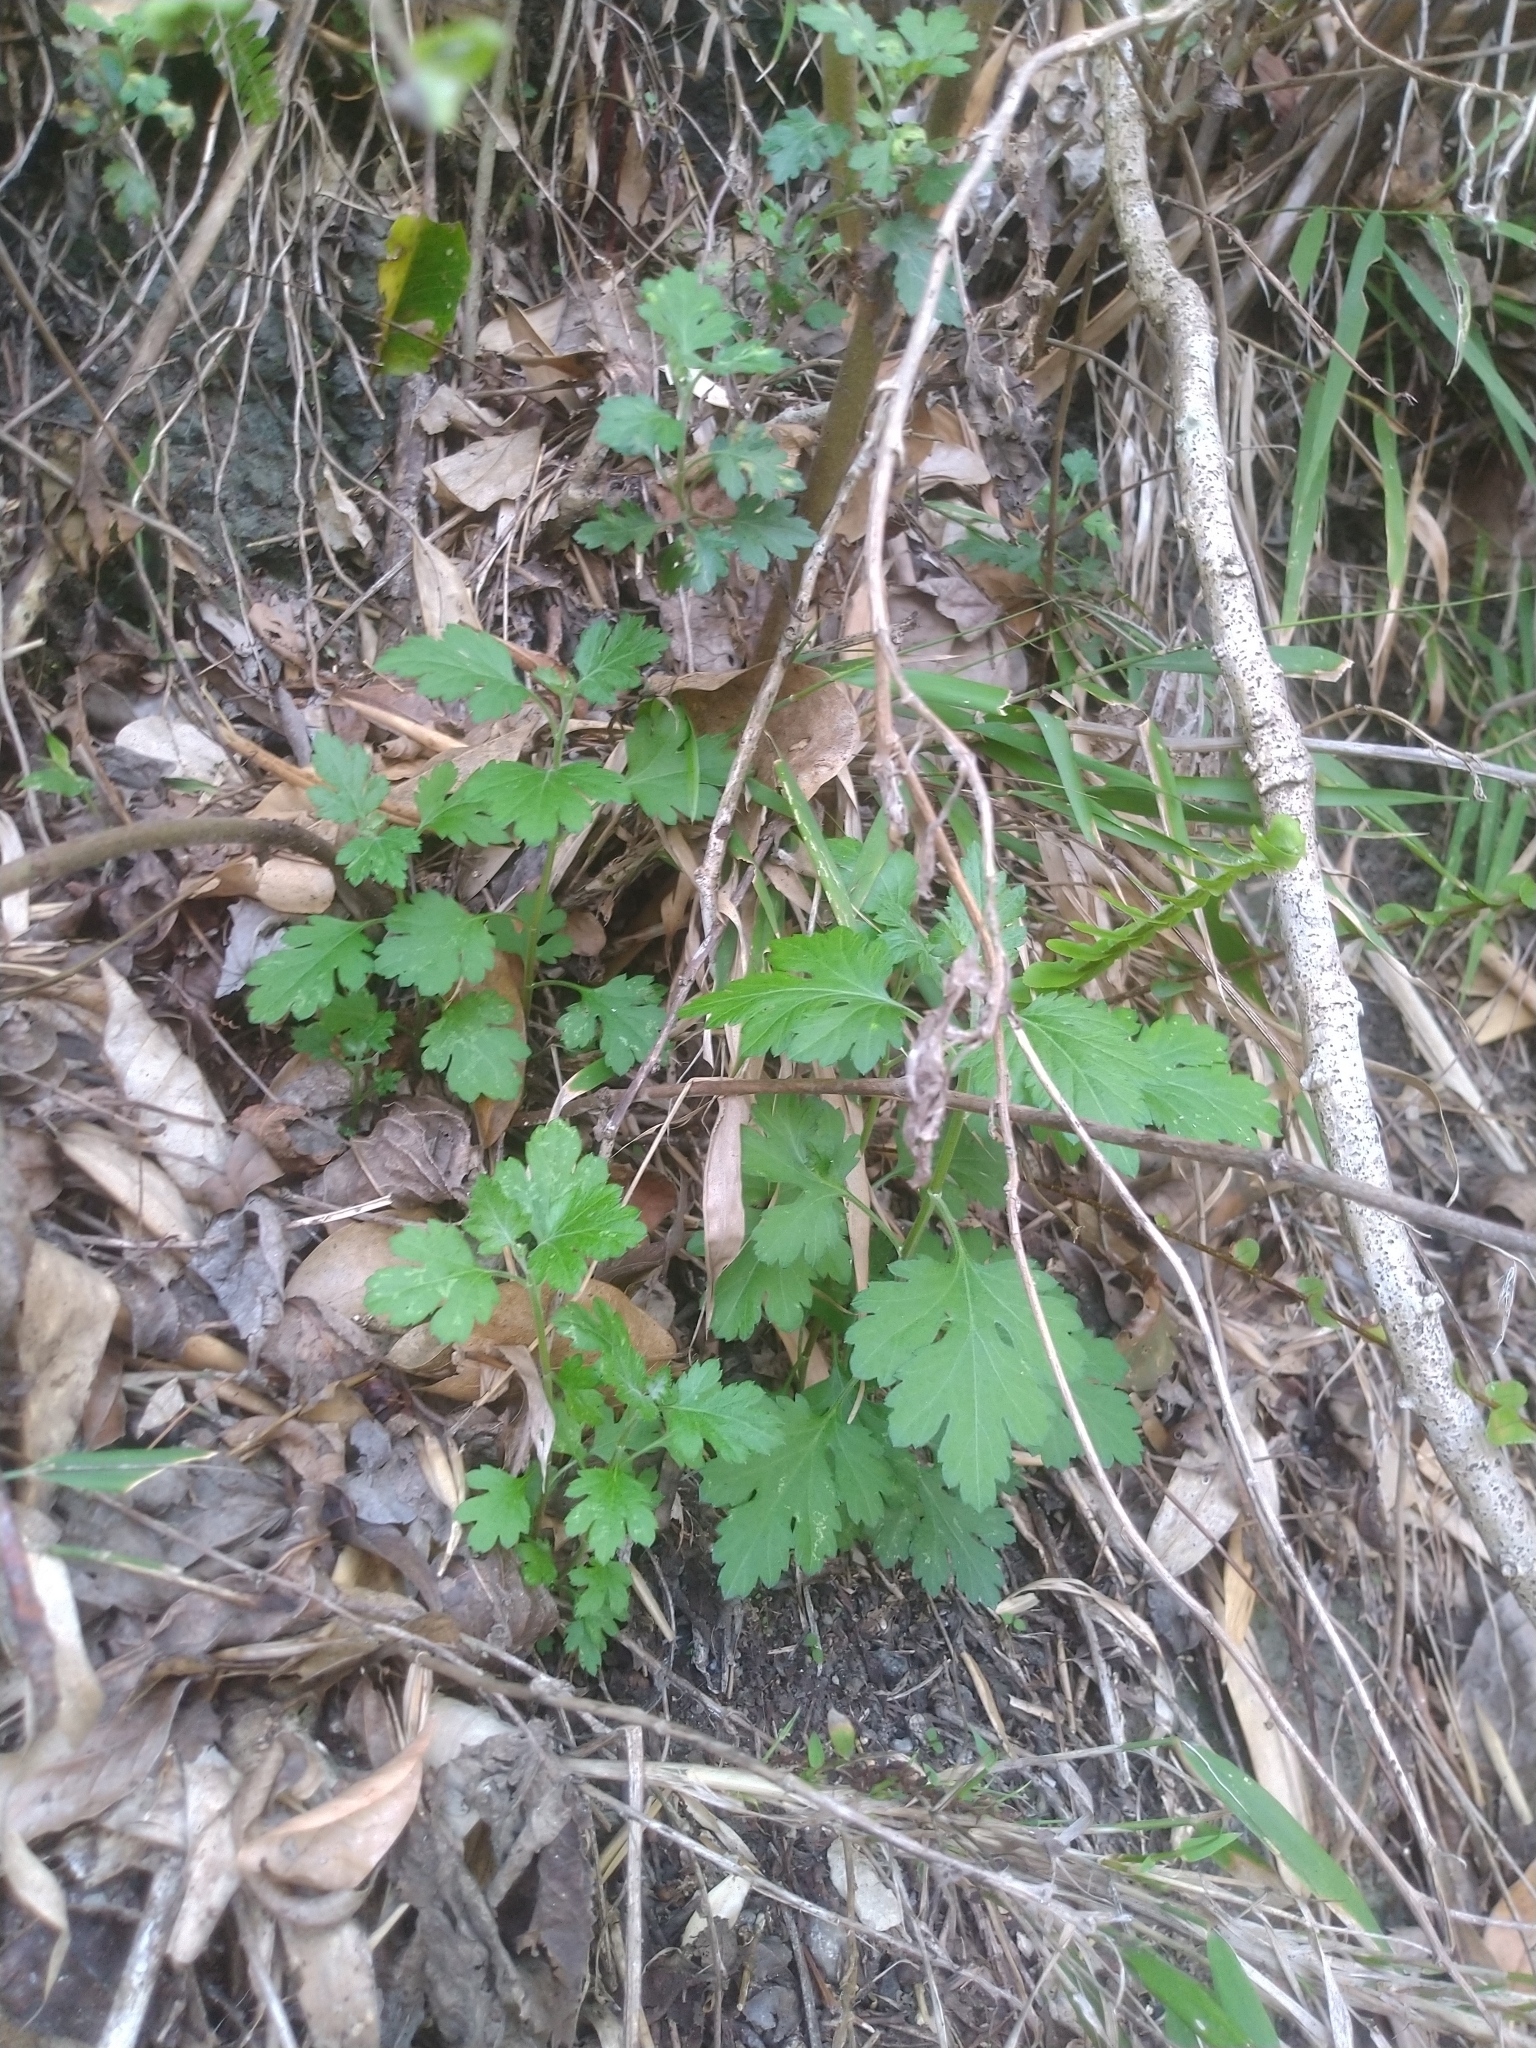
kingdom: Plantae
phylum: Tracheophyta
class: Magnoliopsida
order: Asterales
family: Asteraceae
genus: Artemisia
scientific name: Artemisia indica
